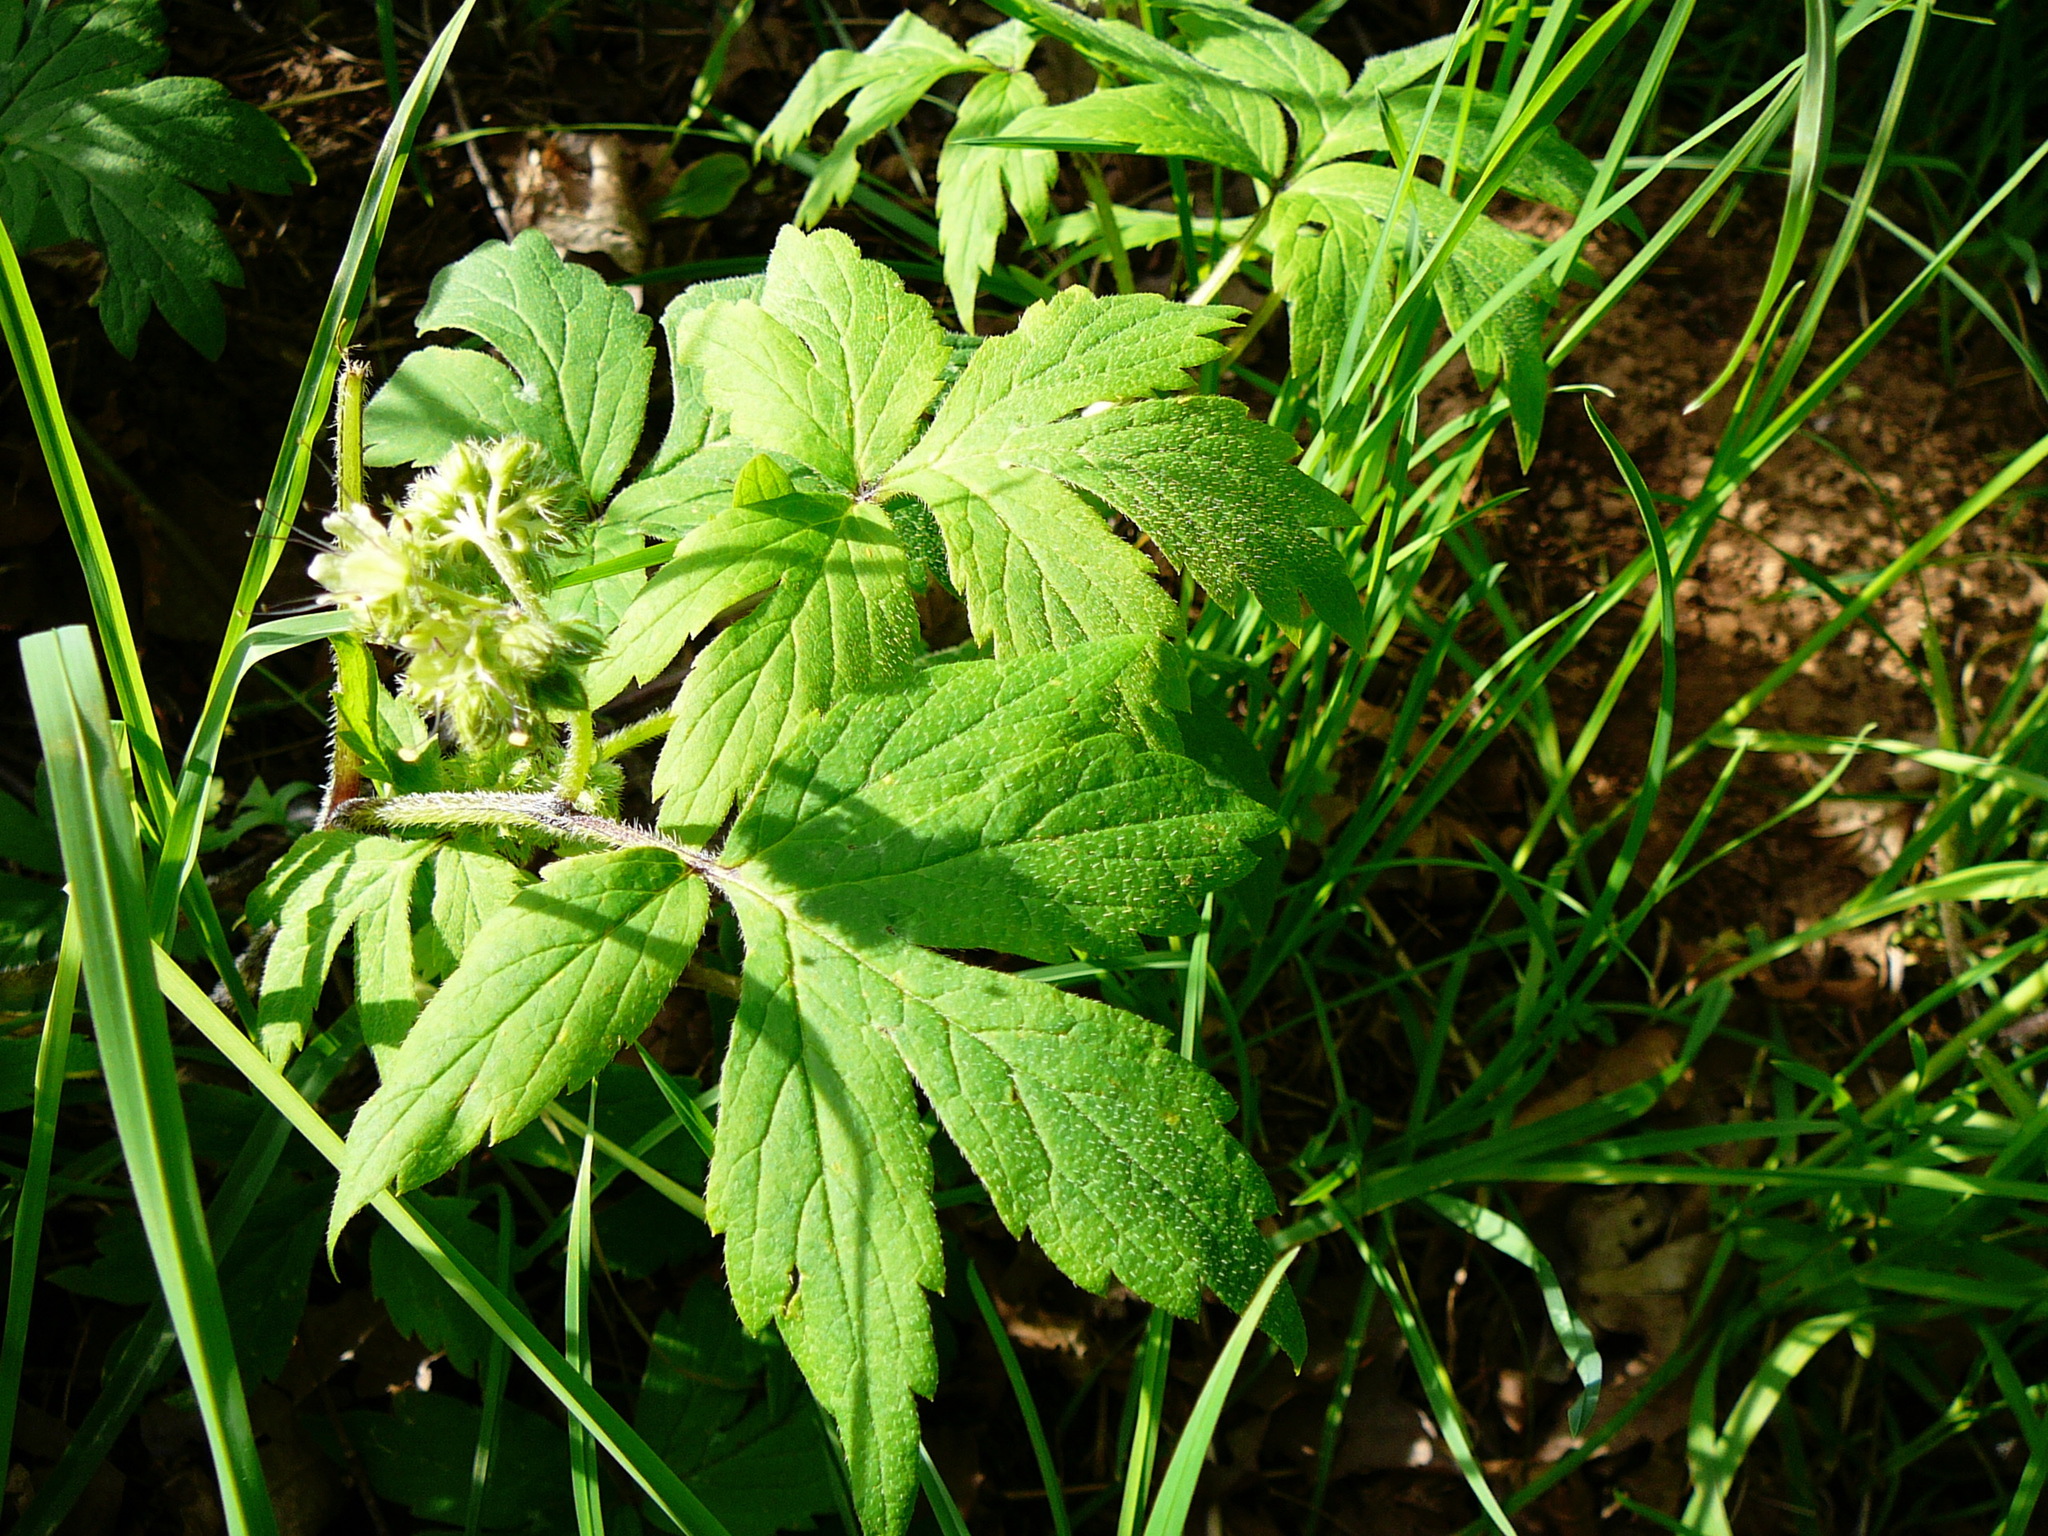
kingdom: Plantae
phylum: Tracheophyta
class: Magnoliopsida
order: Boraginales
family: Hydrophyllaceae
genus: Hydrophyllum
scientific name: Hydrophyllum tenuipes
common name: Pacific waterleaf
